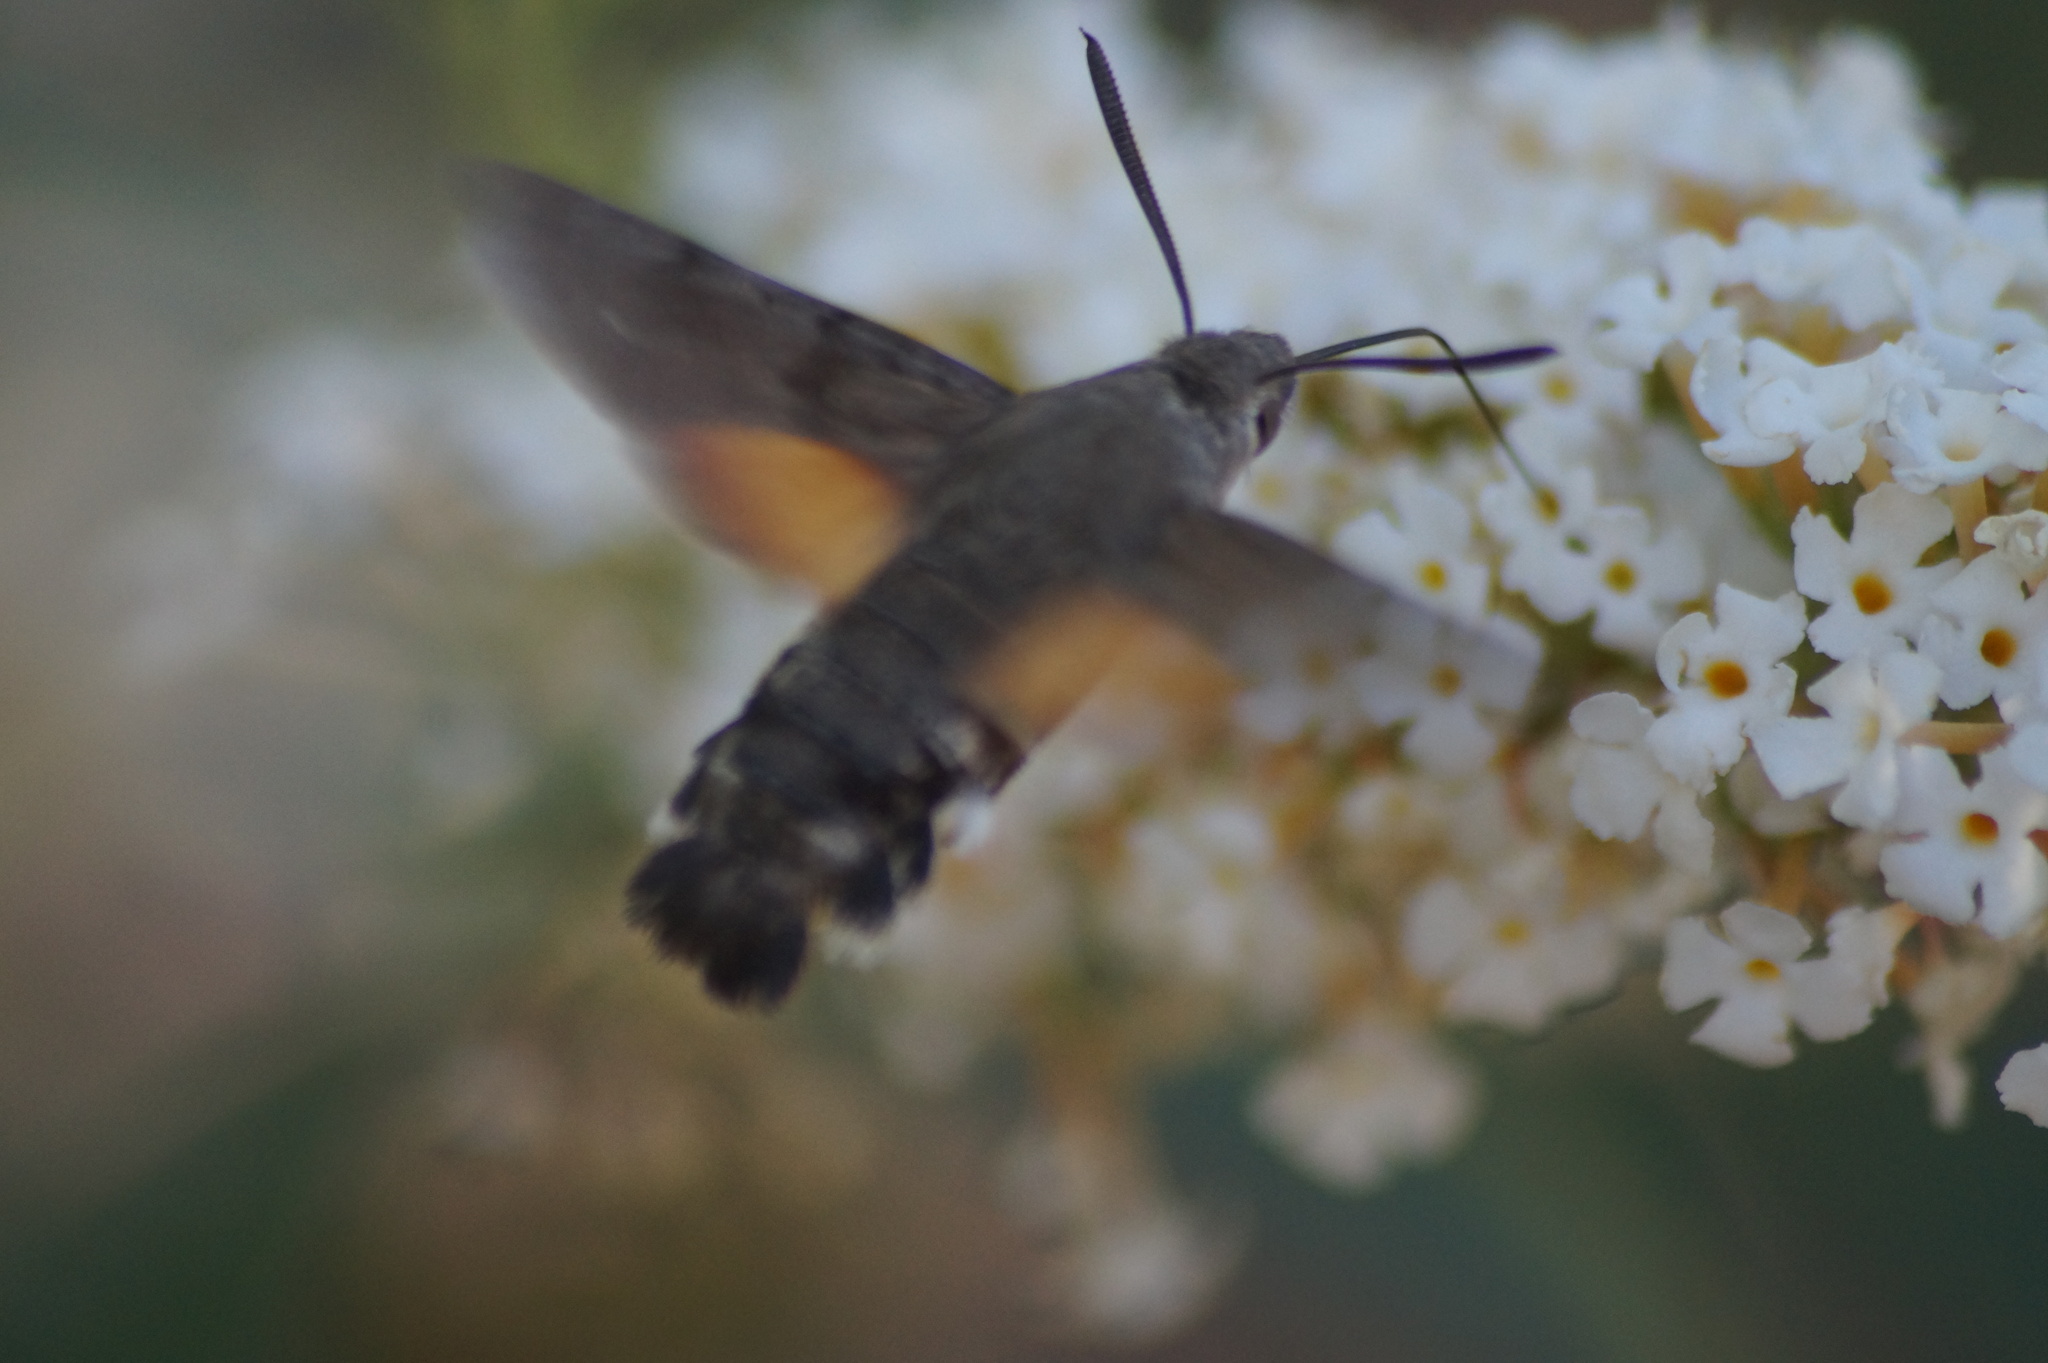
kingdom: Animalia
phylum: Arthropoda
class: Insecta
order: Lepidoptera
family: Sphingidae
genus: Macroglossum
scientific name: Macroglossum stellatarum
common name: Humming-bird hawk-moth
